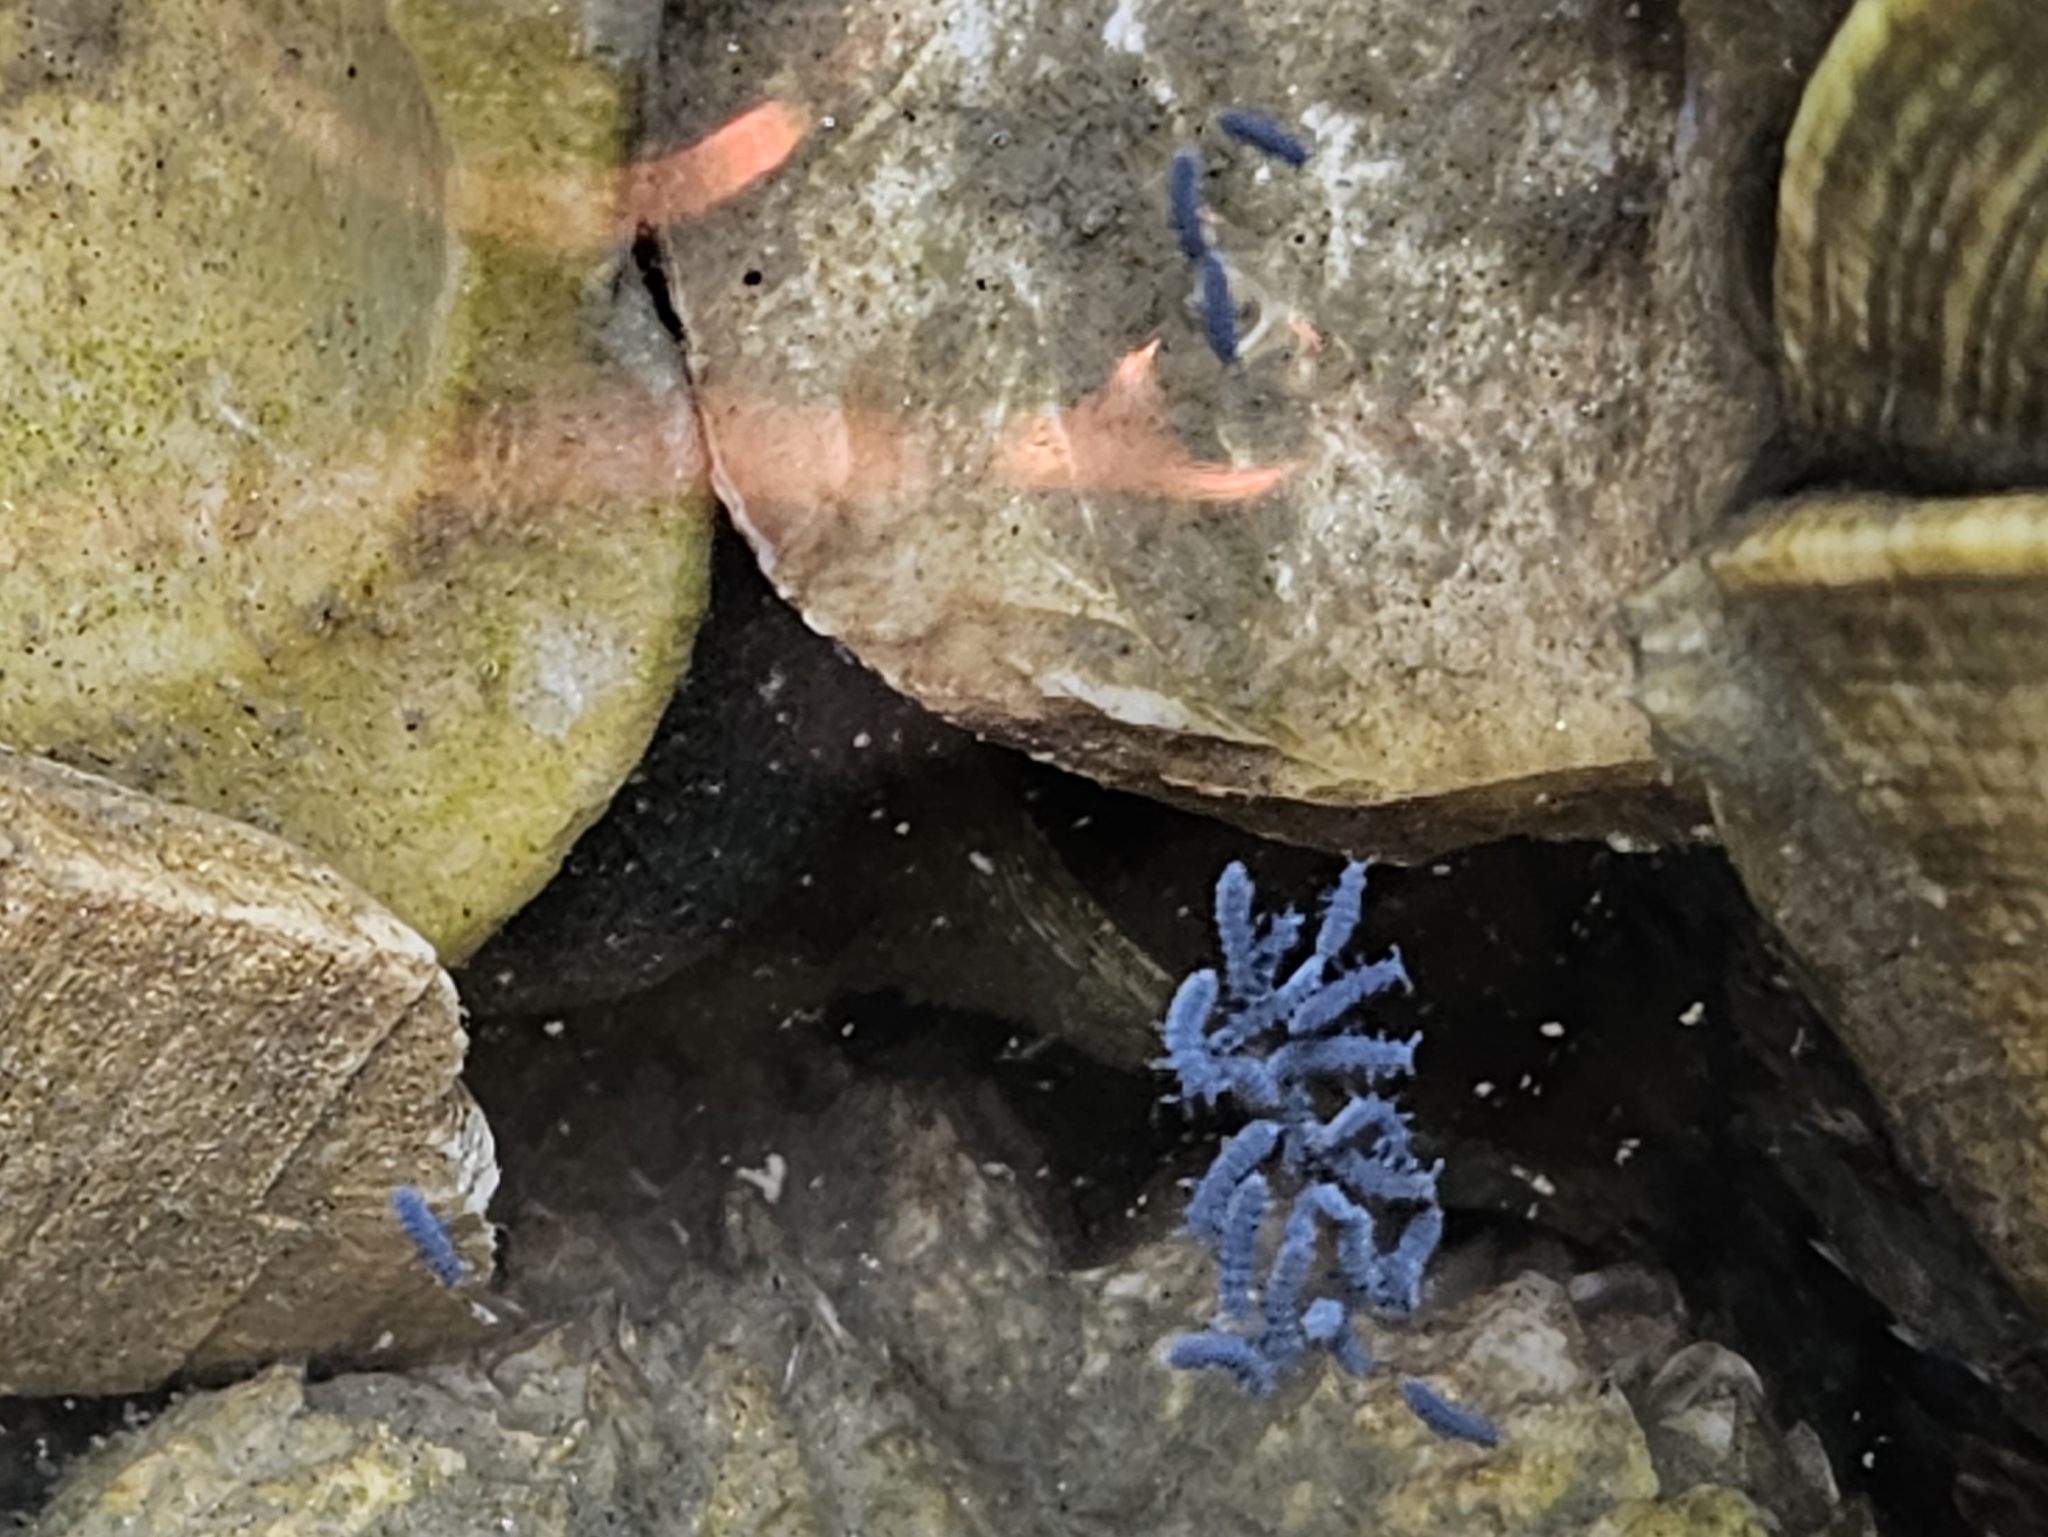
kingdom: Animalia
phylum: Arthropoda
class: Collembola
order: Poduromorpha
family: Neanuridae
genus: Anurida
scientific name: Anurida maritima
